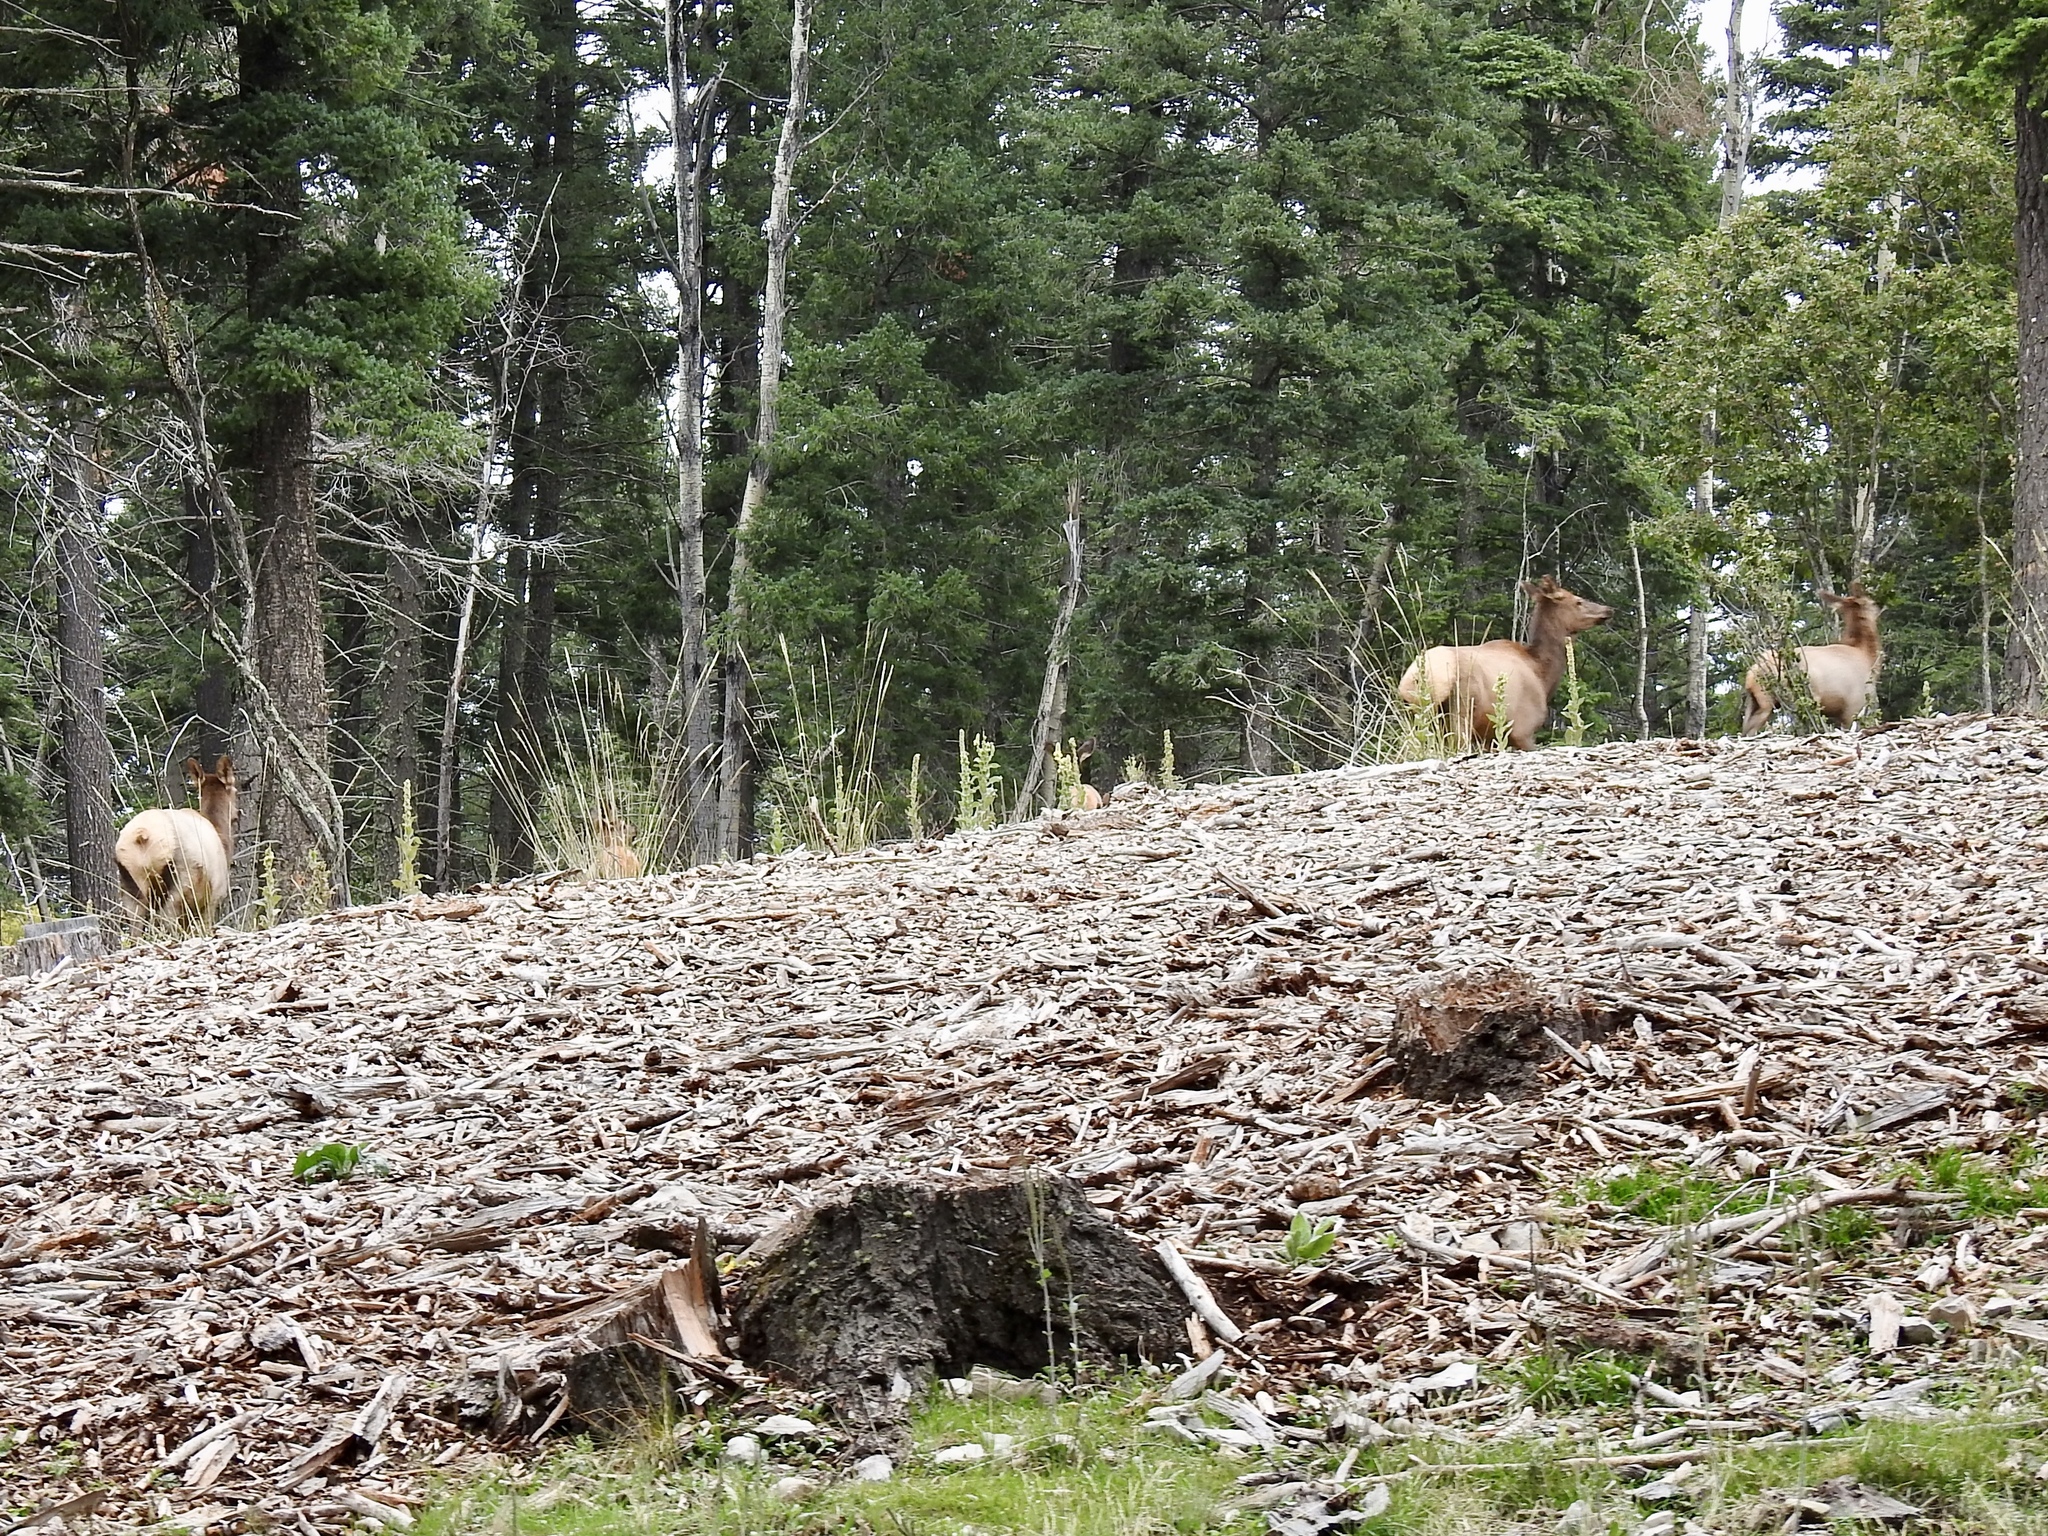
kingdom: Animalia
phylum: Chordata
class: Mammalia
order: Artiodactyla
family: Cervidae
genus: Cervus
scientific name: Cervus elaphus
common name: Red deer
